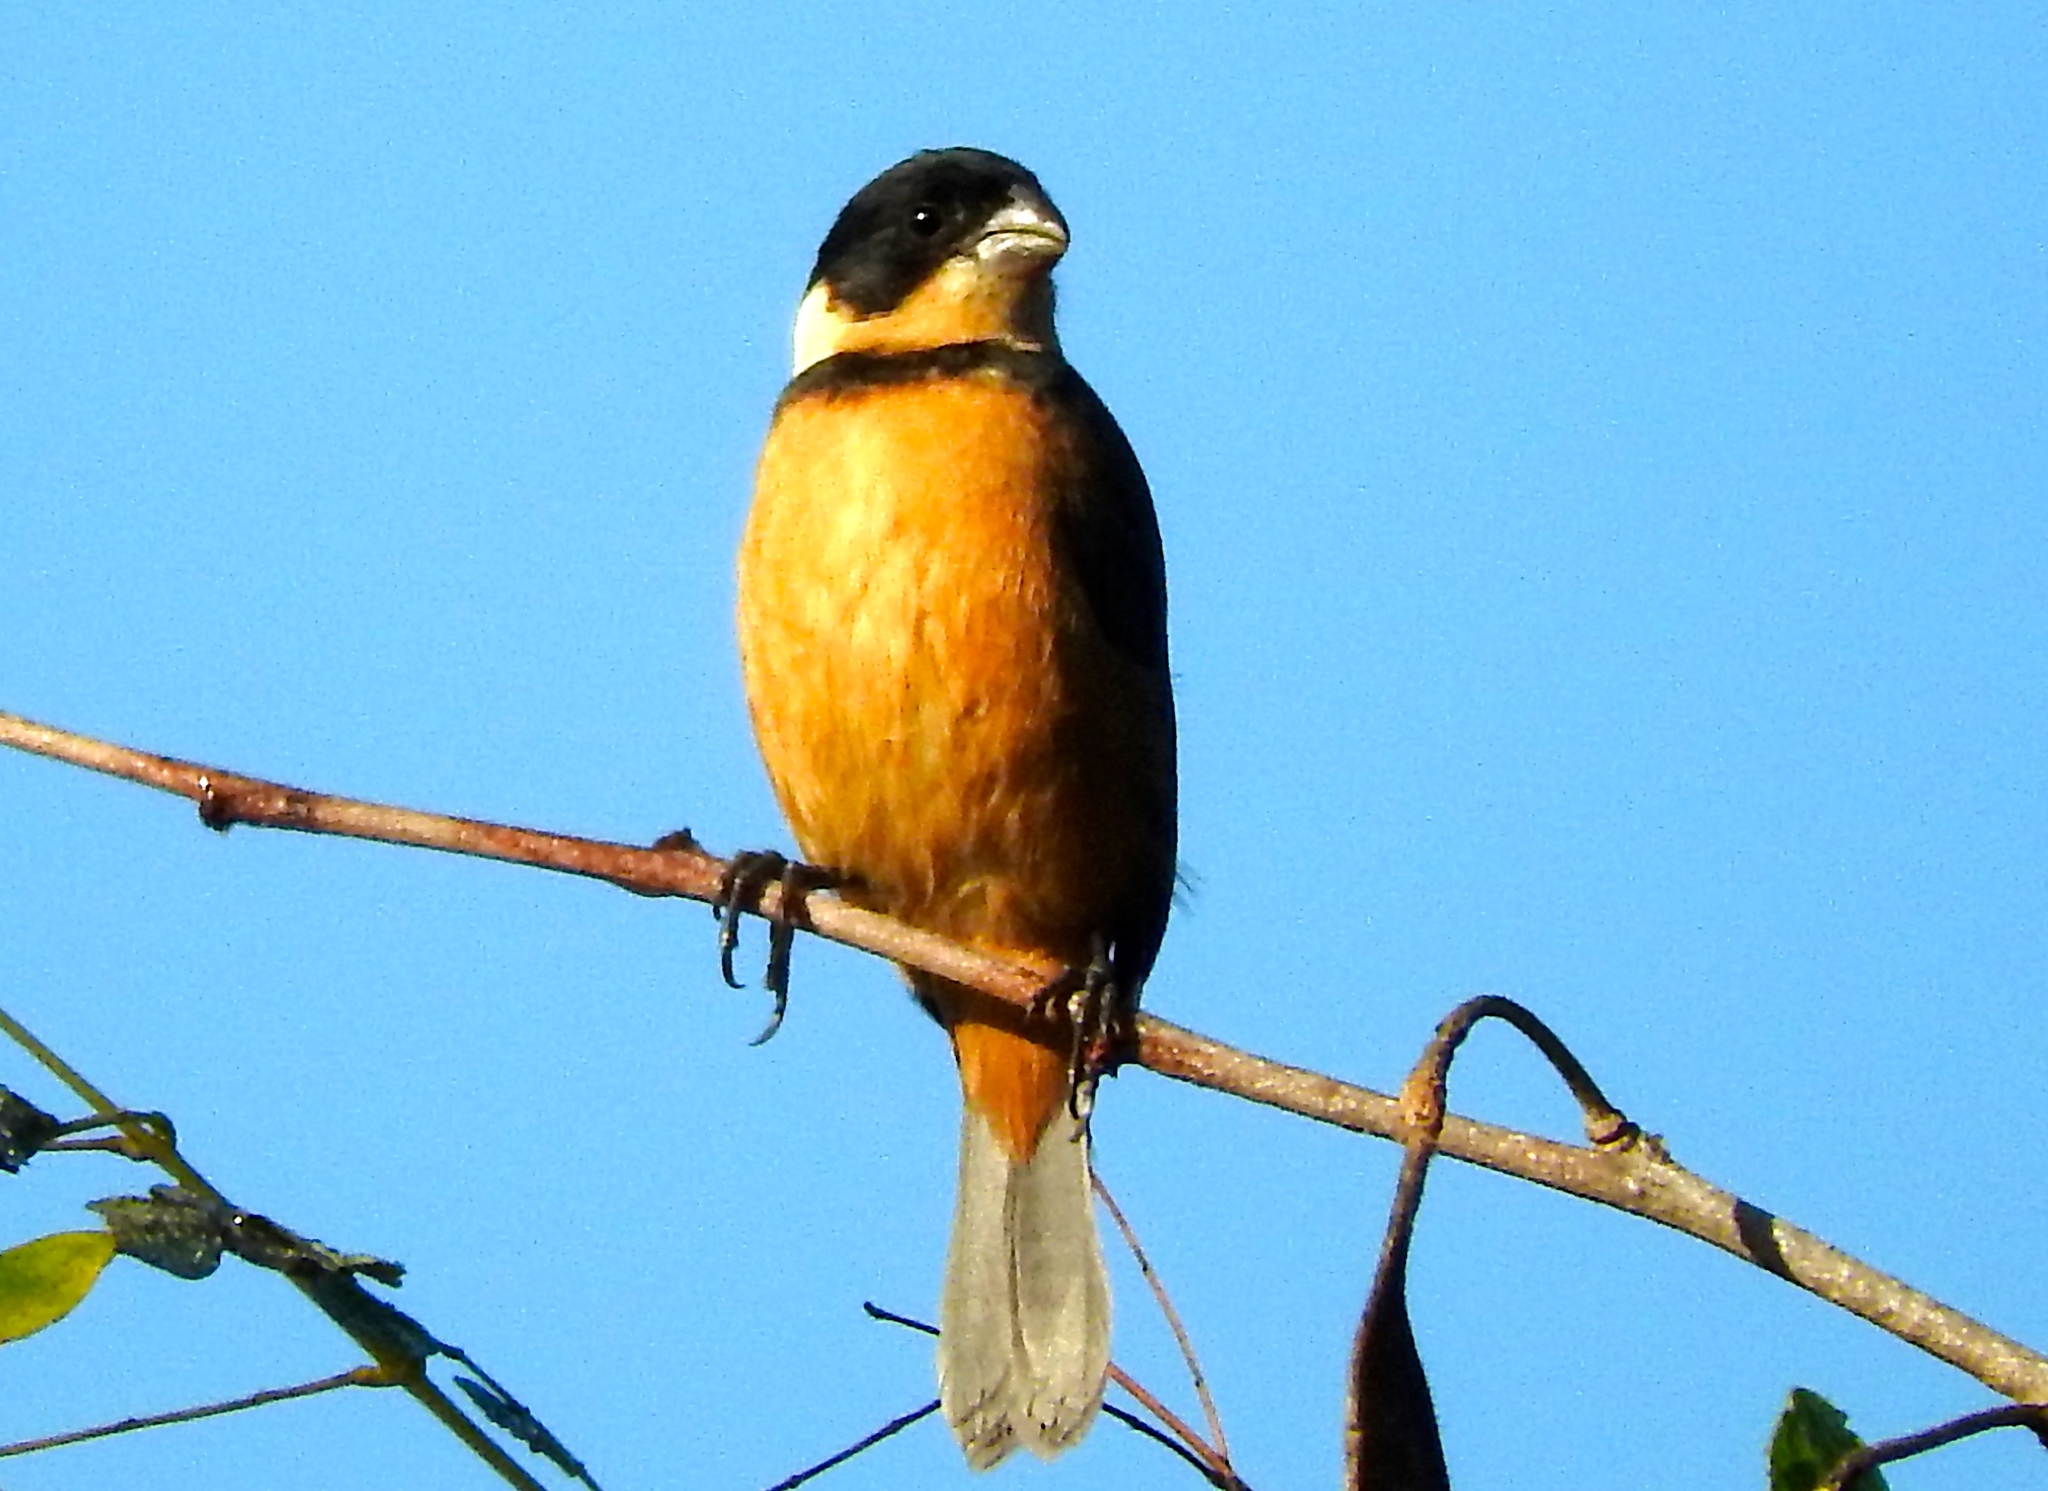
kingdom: Animalia
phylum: Chordata
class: Aves
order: Passeriformes
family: Thraupidae
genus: Sporophila
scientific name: Sporophila torqueola
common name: White-collared seedeater
